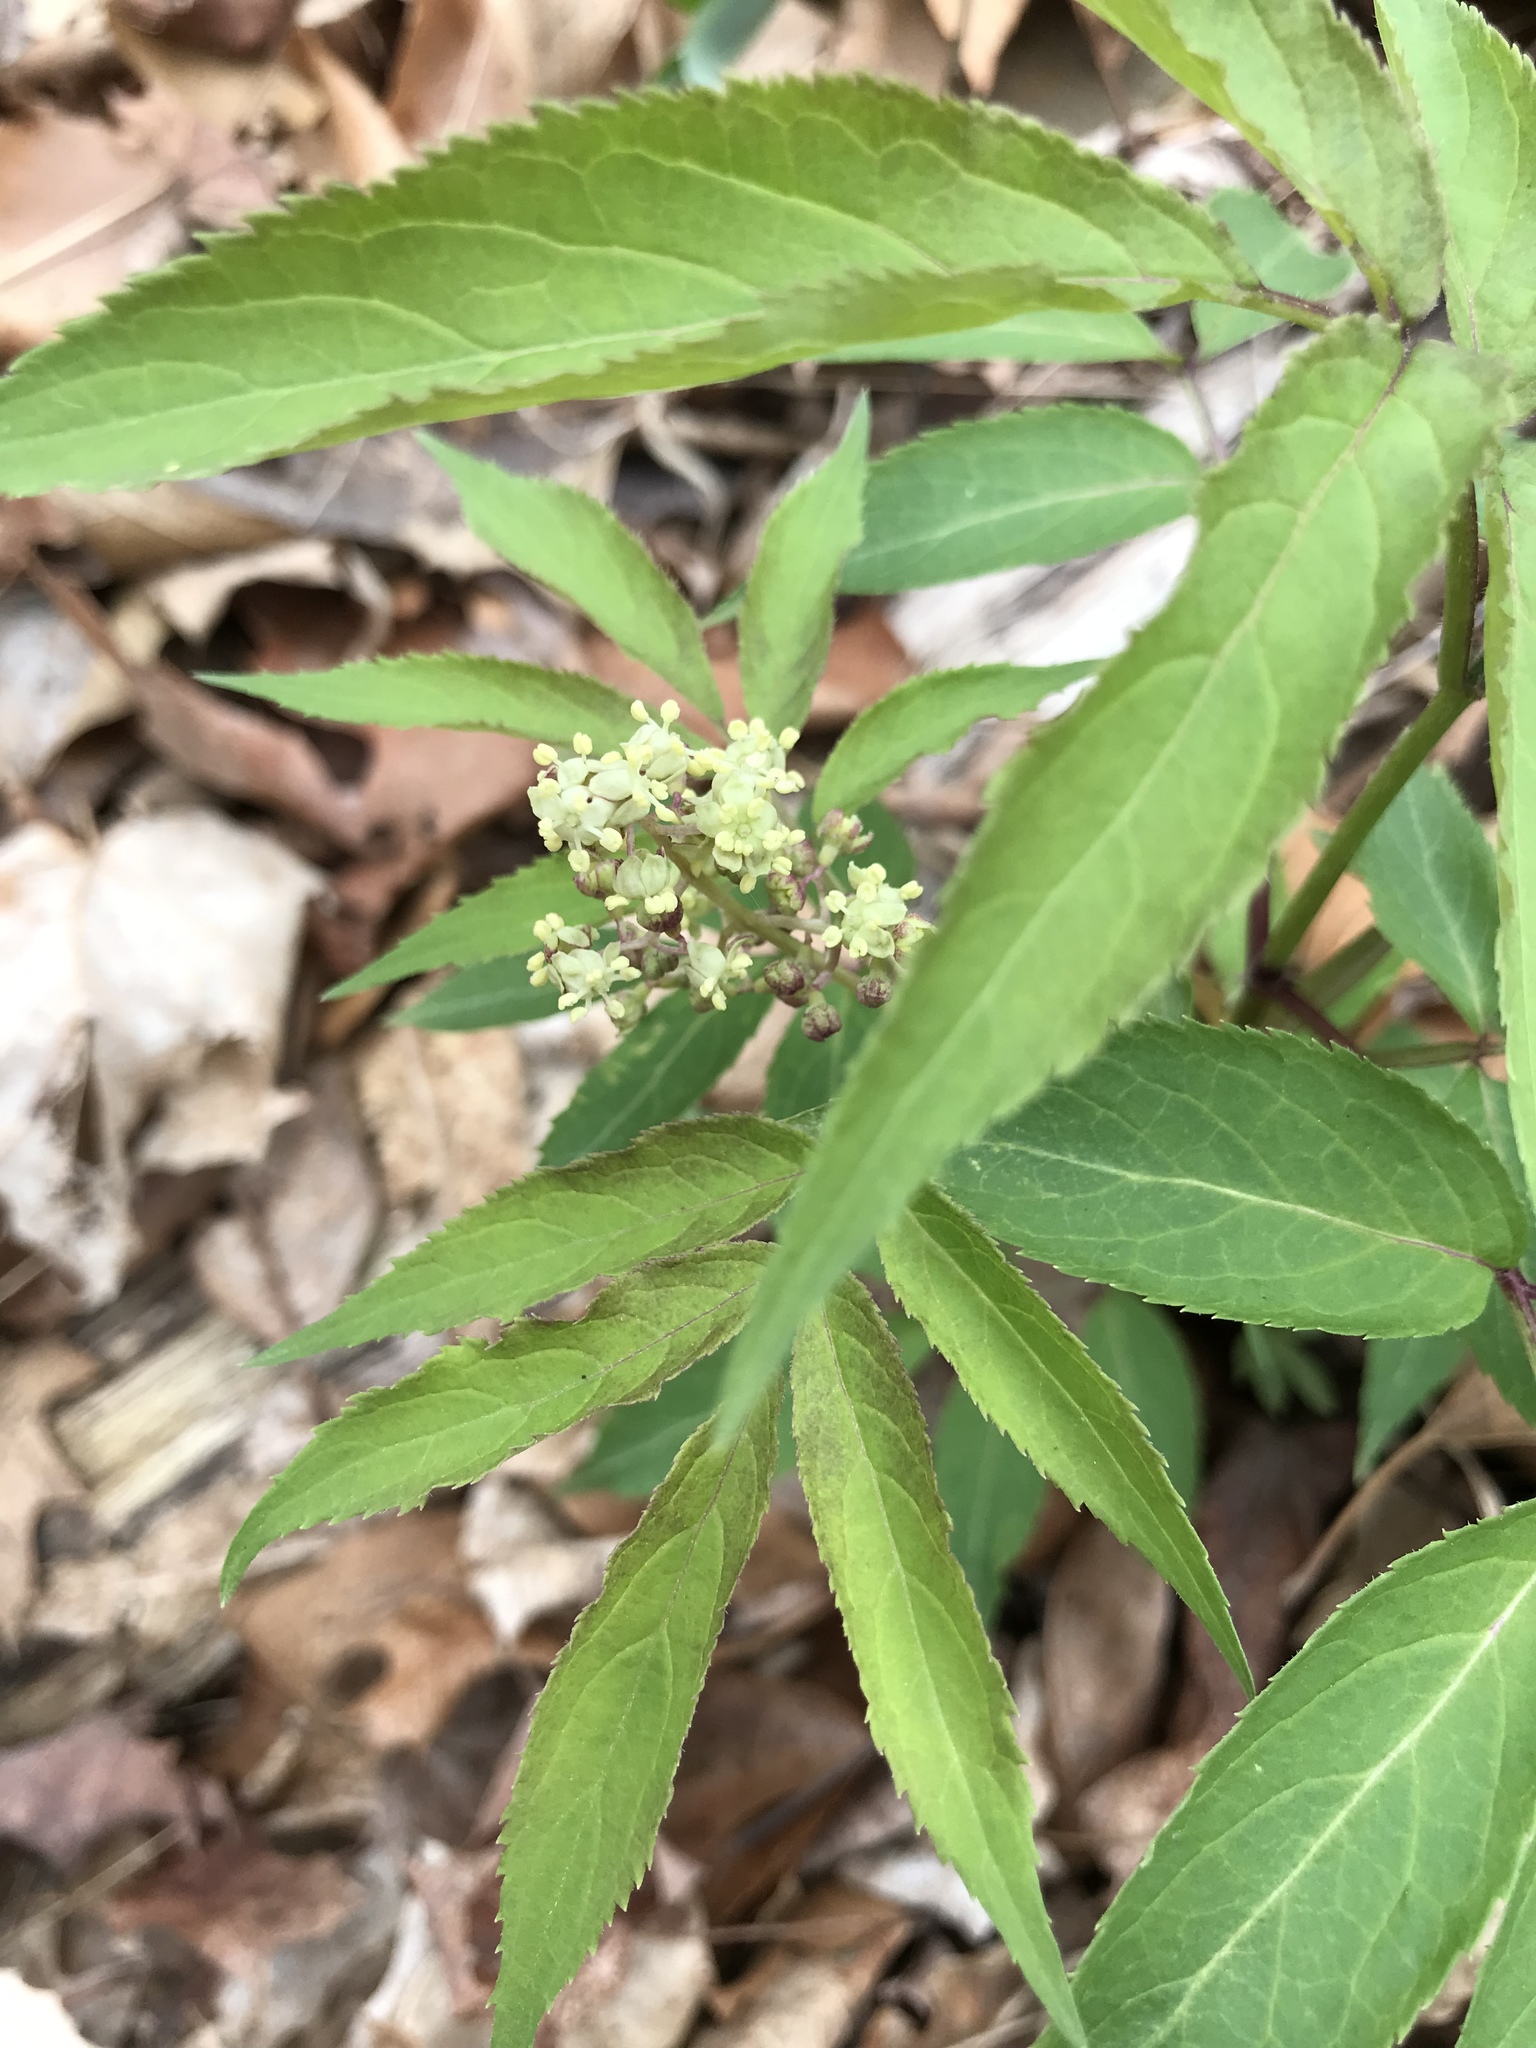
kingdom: Plantae
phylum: Tracheophyta
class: Magnoliopsida
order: Dipsacales
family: Viburnaceae
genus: Sambucus
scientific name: Sambucus canadensis
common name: American elder
